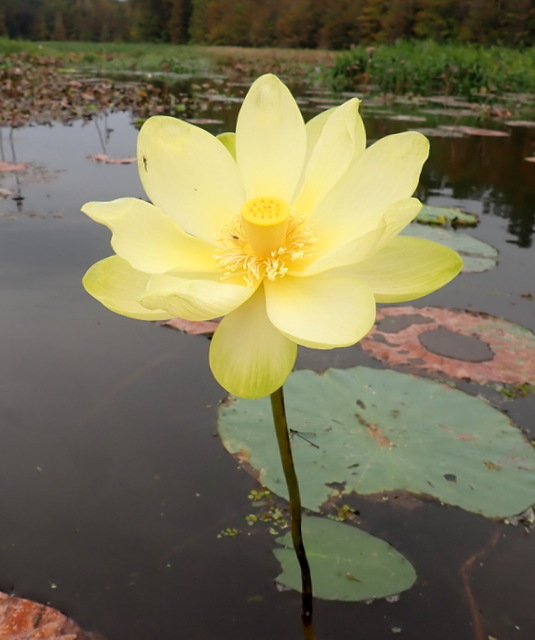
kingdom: Plantae
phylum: Tracheophyta
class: Magnoliopsida
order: Proteales
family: Nelumbonaceae
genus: Nelumbo
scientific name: Nelumbo lutea
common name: American lotus
